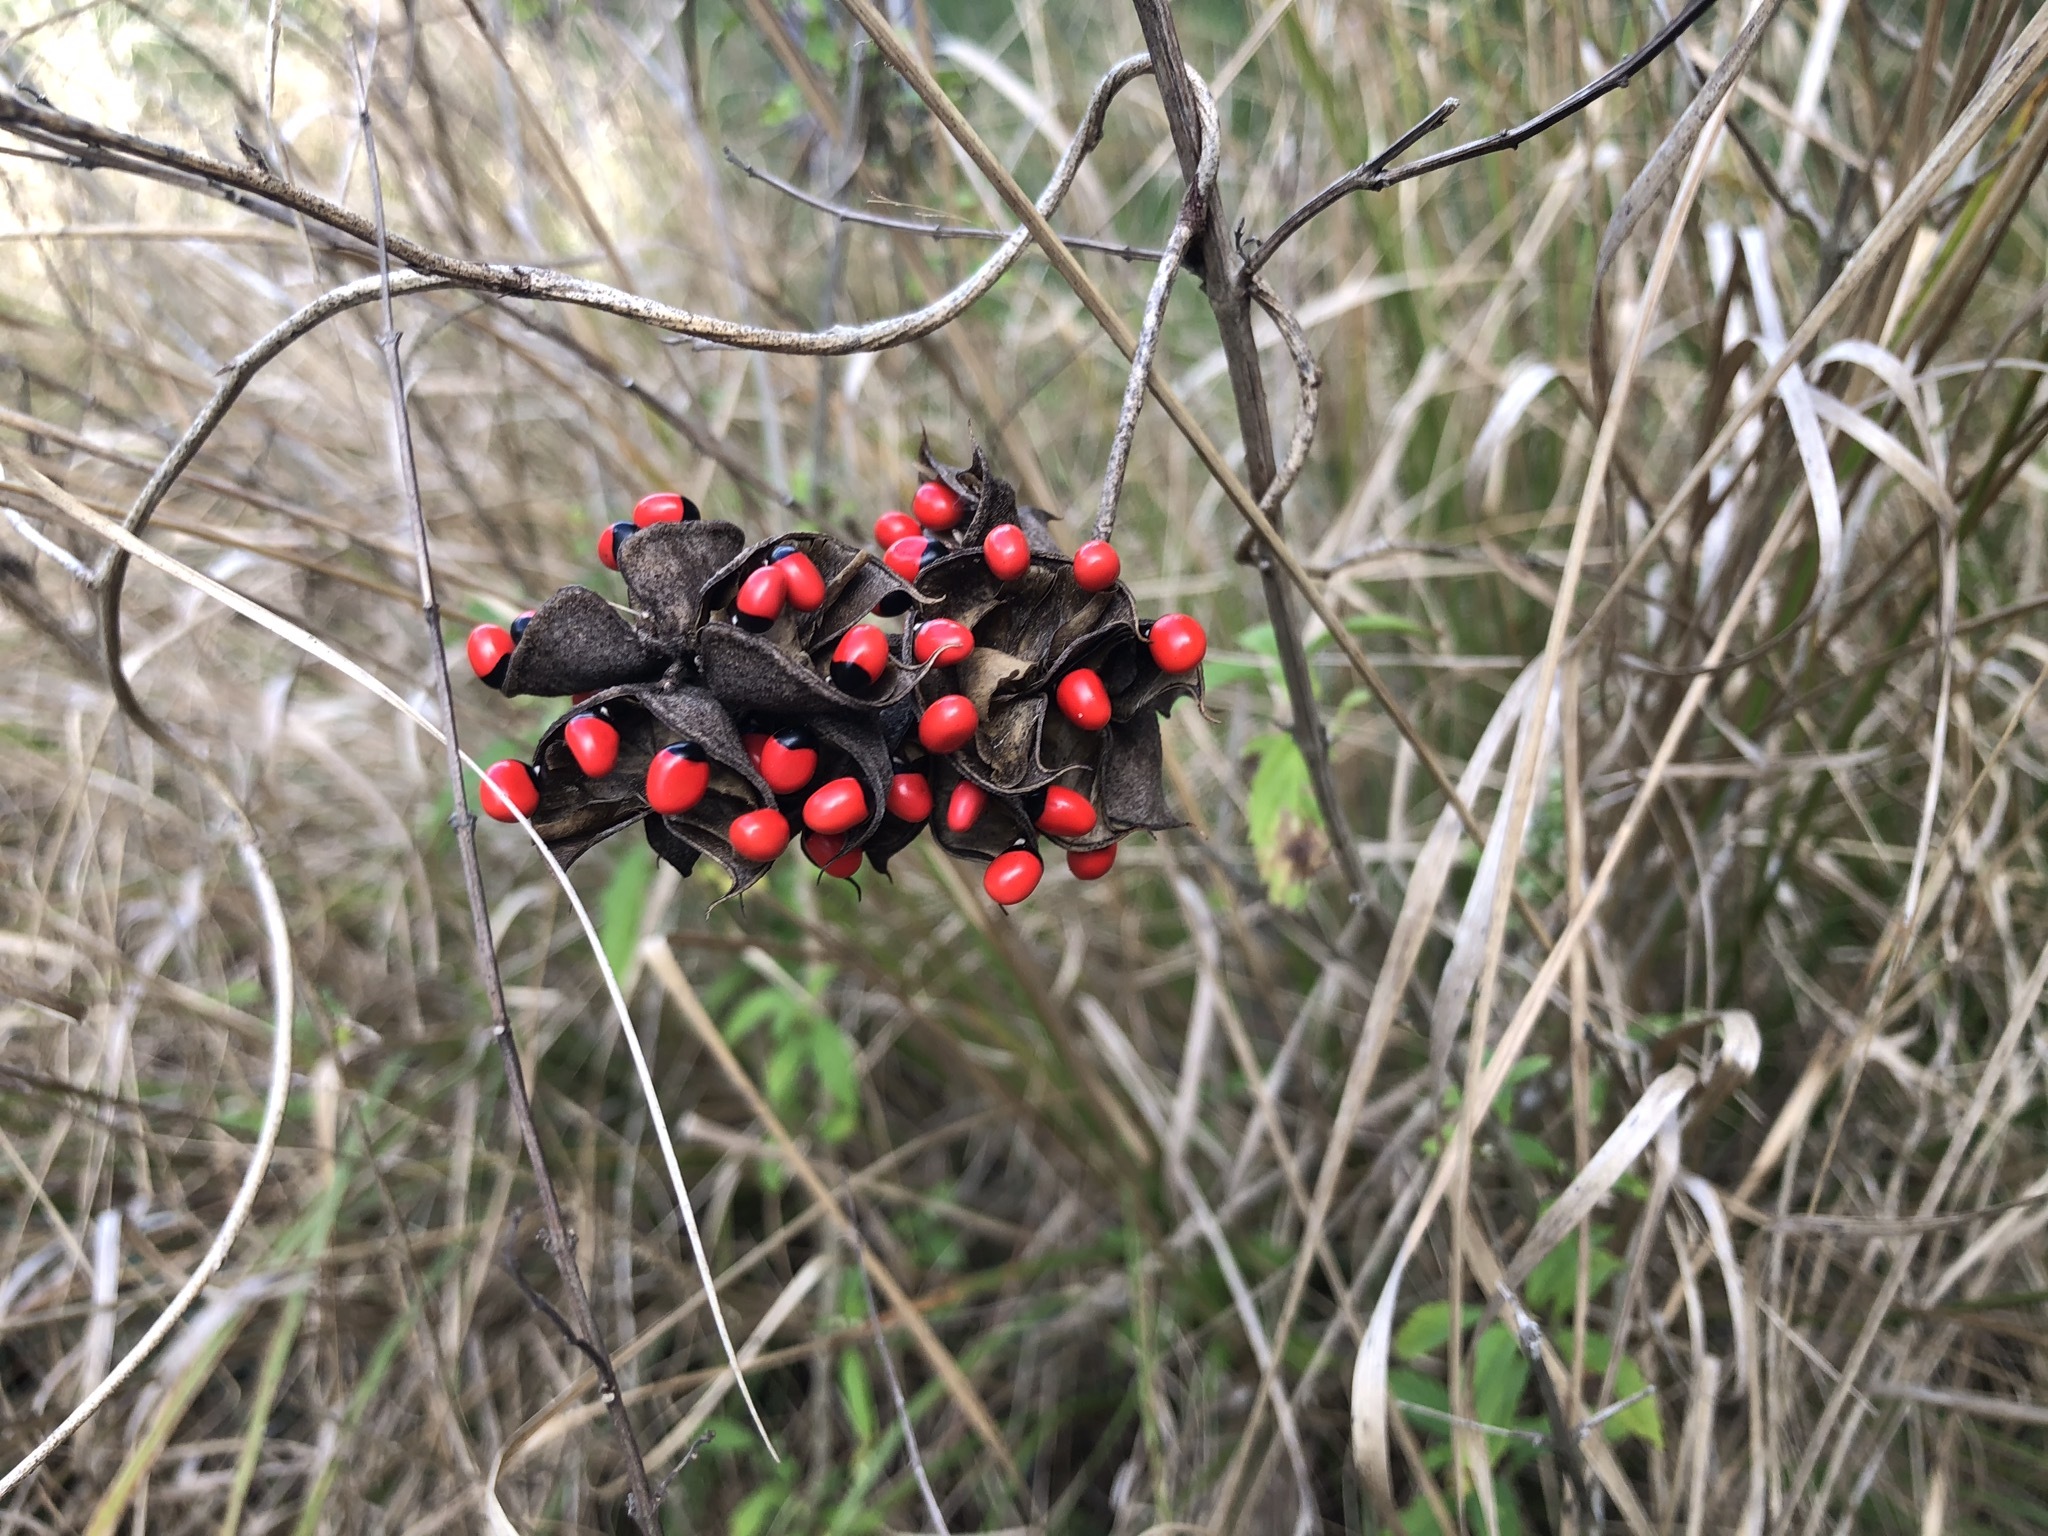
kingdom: Plantae
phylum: Tracheophyta
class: Magnoliopsida
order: Fabales
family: Fabaceae
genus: Abrus
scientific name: Abrus precatorius
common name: Rosarypea
